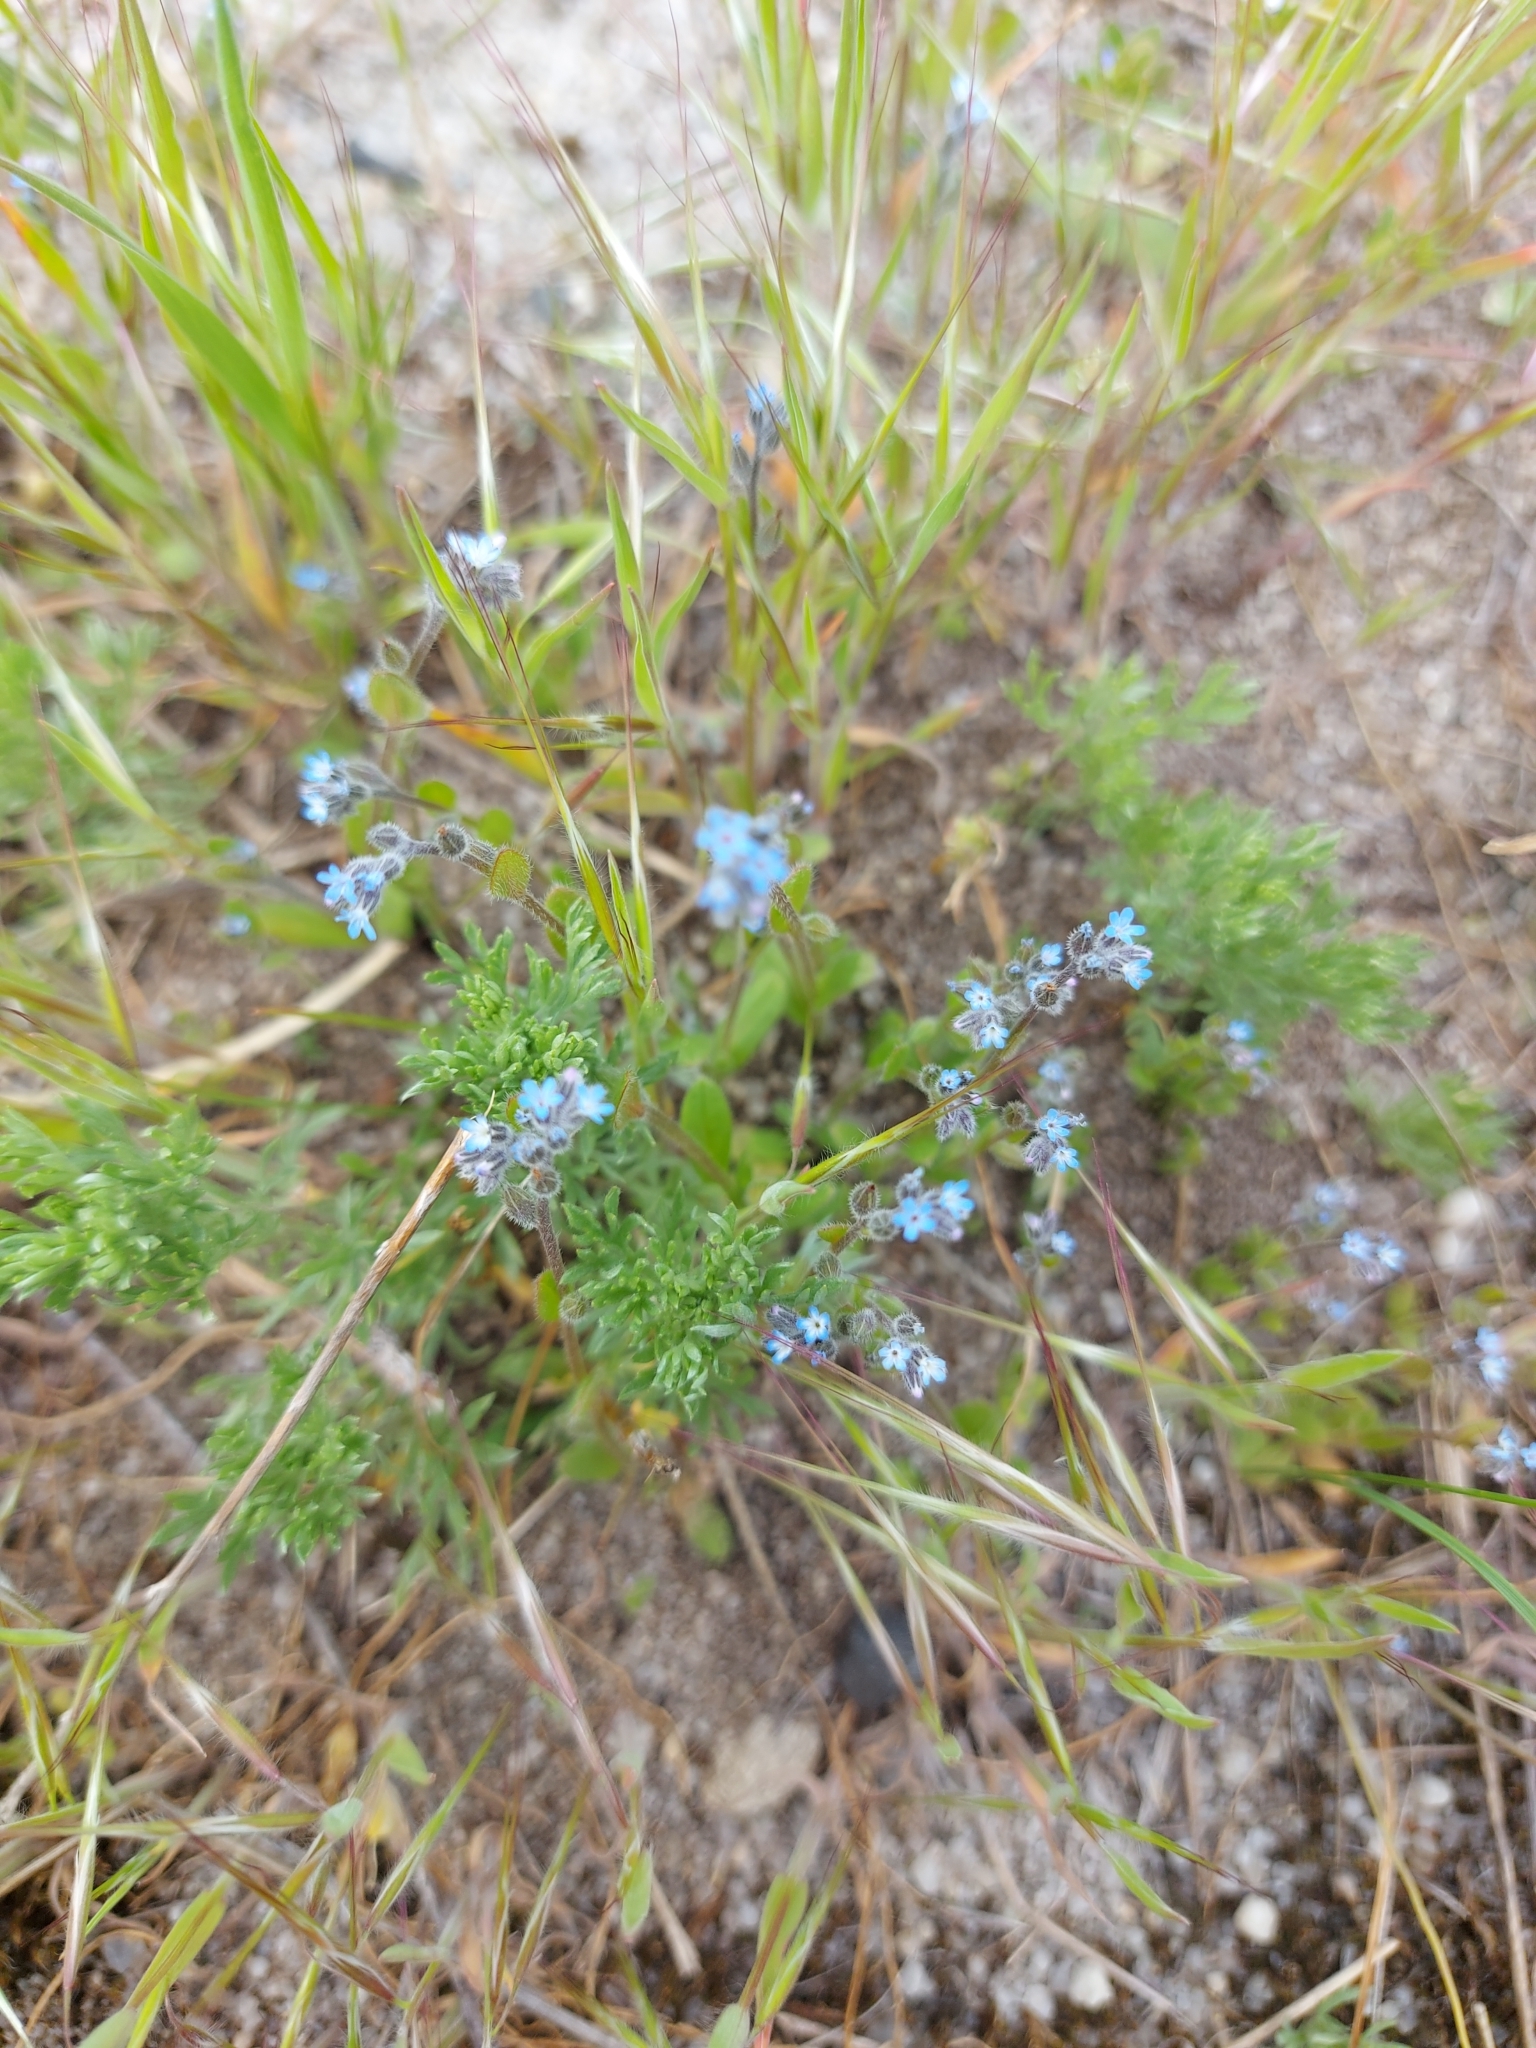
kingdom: Plantae
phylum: Tracheophyta
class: Magnoliopsida
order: Boraginales
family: Boraginaceae
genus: Myosotis
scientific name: Myosotis stricta
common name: Strict forget-me-not
